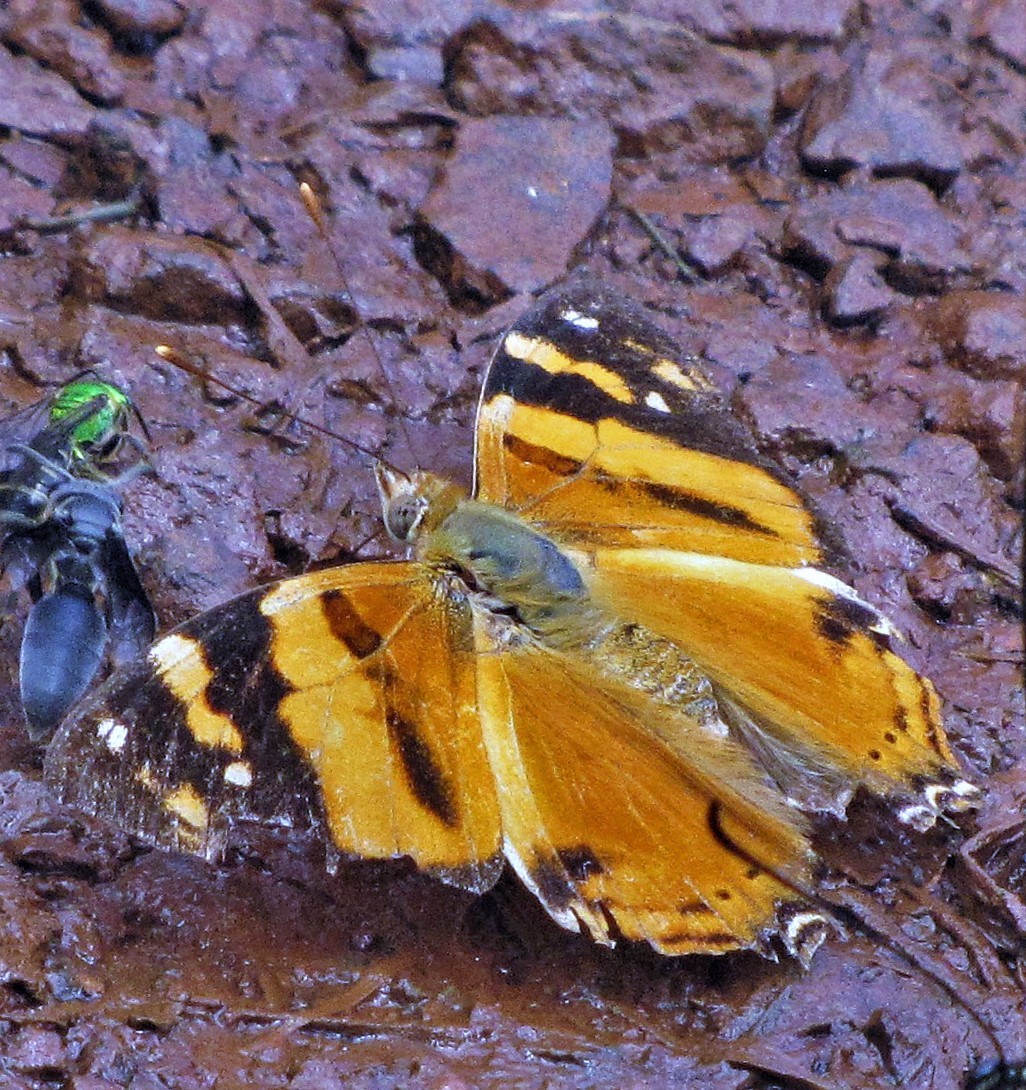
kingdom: Animalia
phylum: Arthropoda
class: Insecta
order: Lepidoptera
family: Nymphalidae
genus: Hypanartia
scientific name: Hypanartia lethe
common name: Orange mapwing
